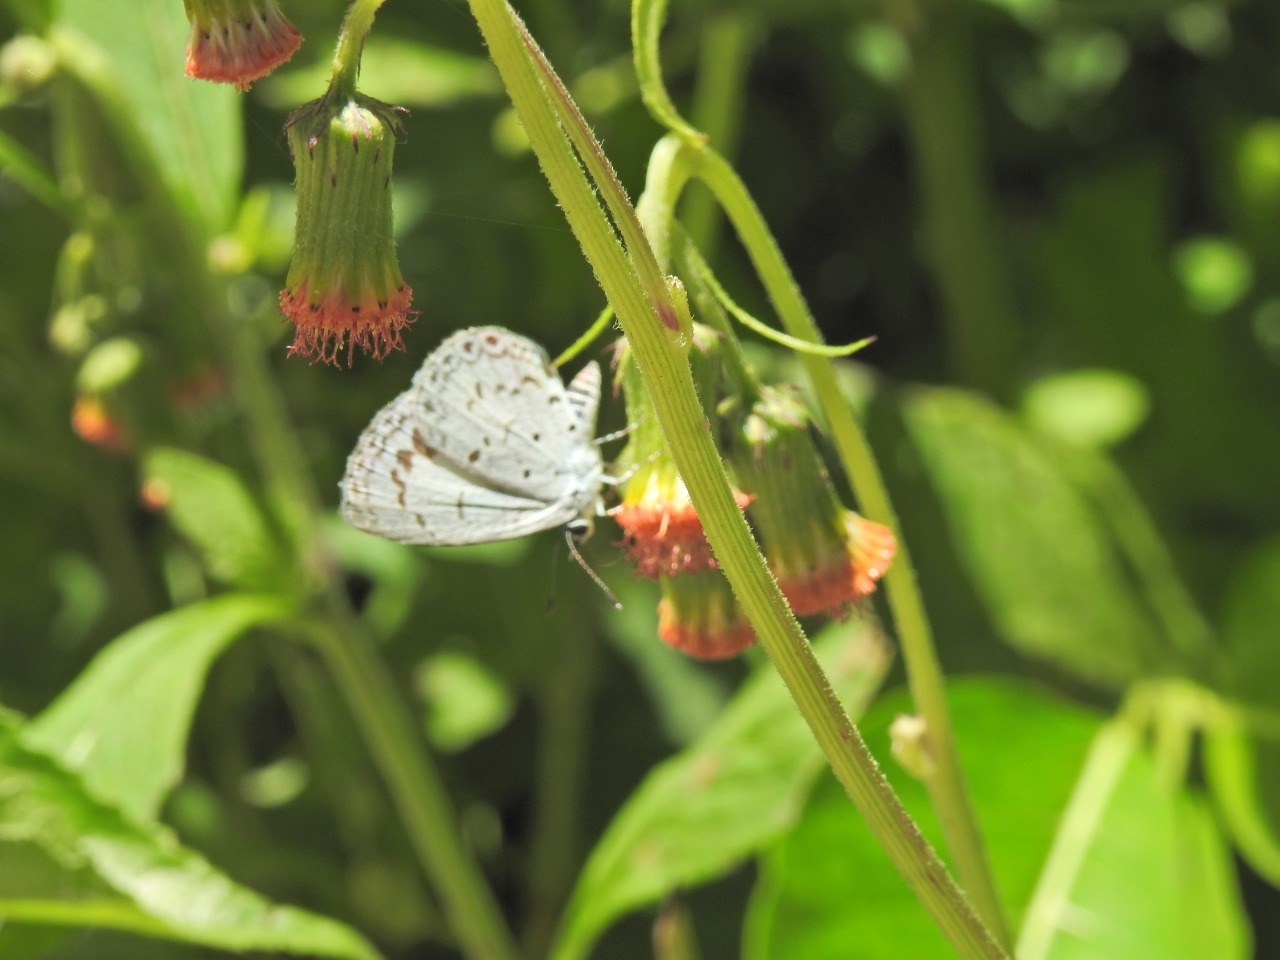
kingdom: Animalia
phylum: Arthropoda
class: Insecta
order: Lepidoptera
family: Lycaenidae
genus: Acytolepis
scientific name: Acytolepis puspa
